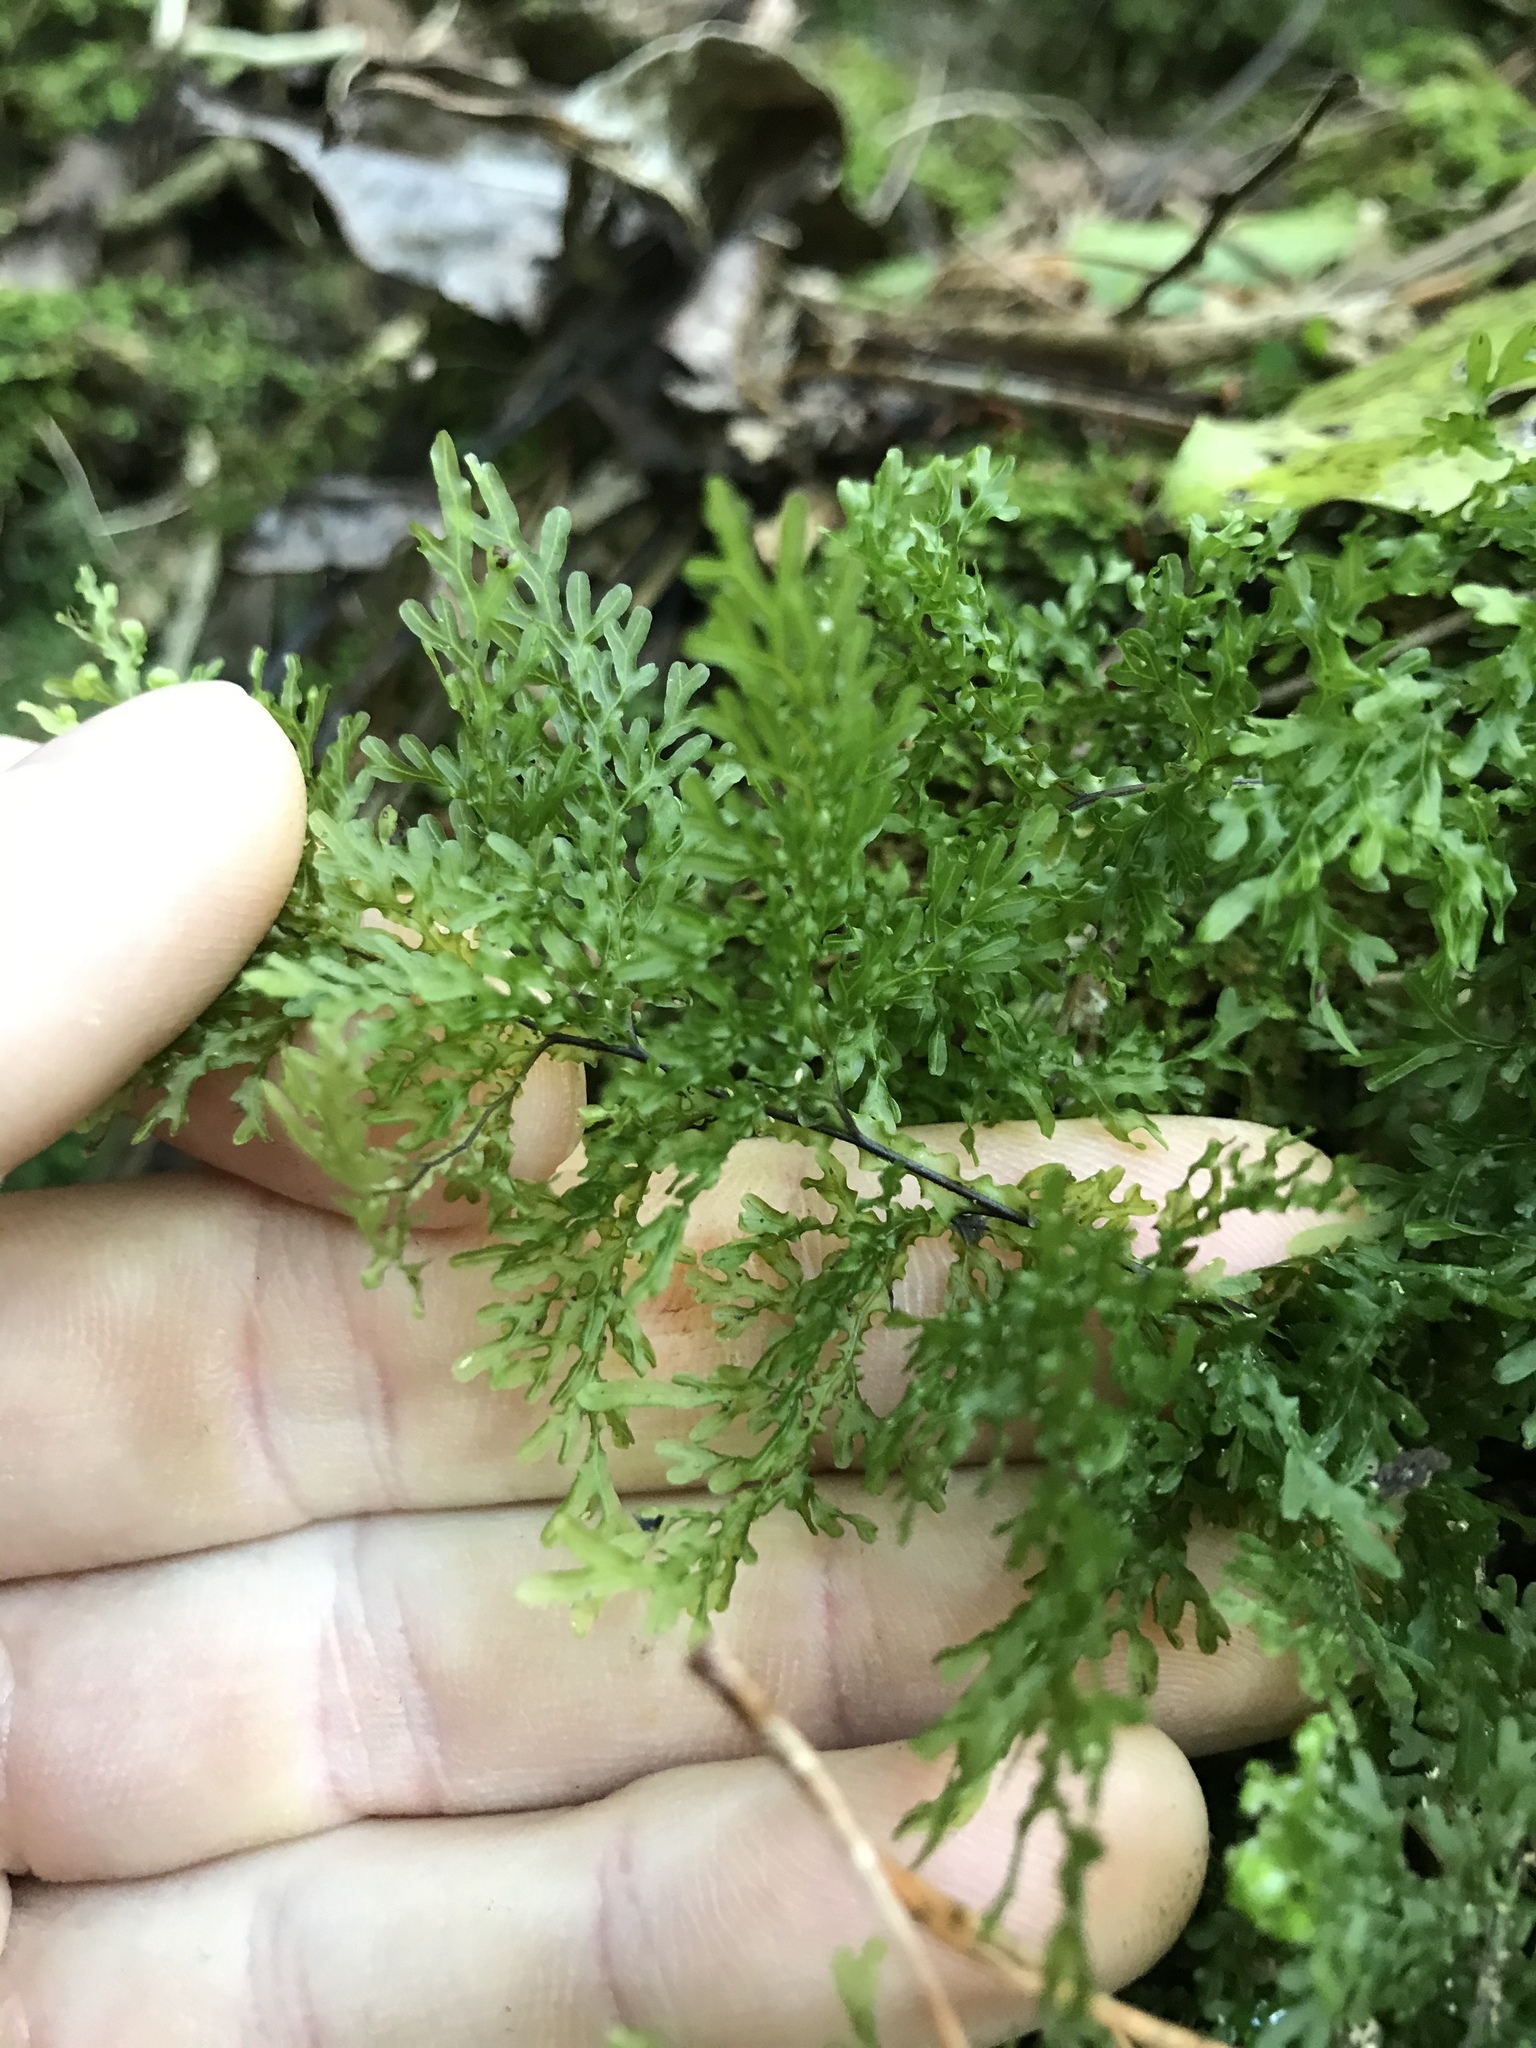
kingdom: Plantae
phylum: Tracheophyta
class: Polypodiopsida
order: Hymenophyllales
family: Hymenophyllaceae
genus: Hymenophyllum
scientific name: Hymenophyllum flexuosum
